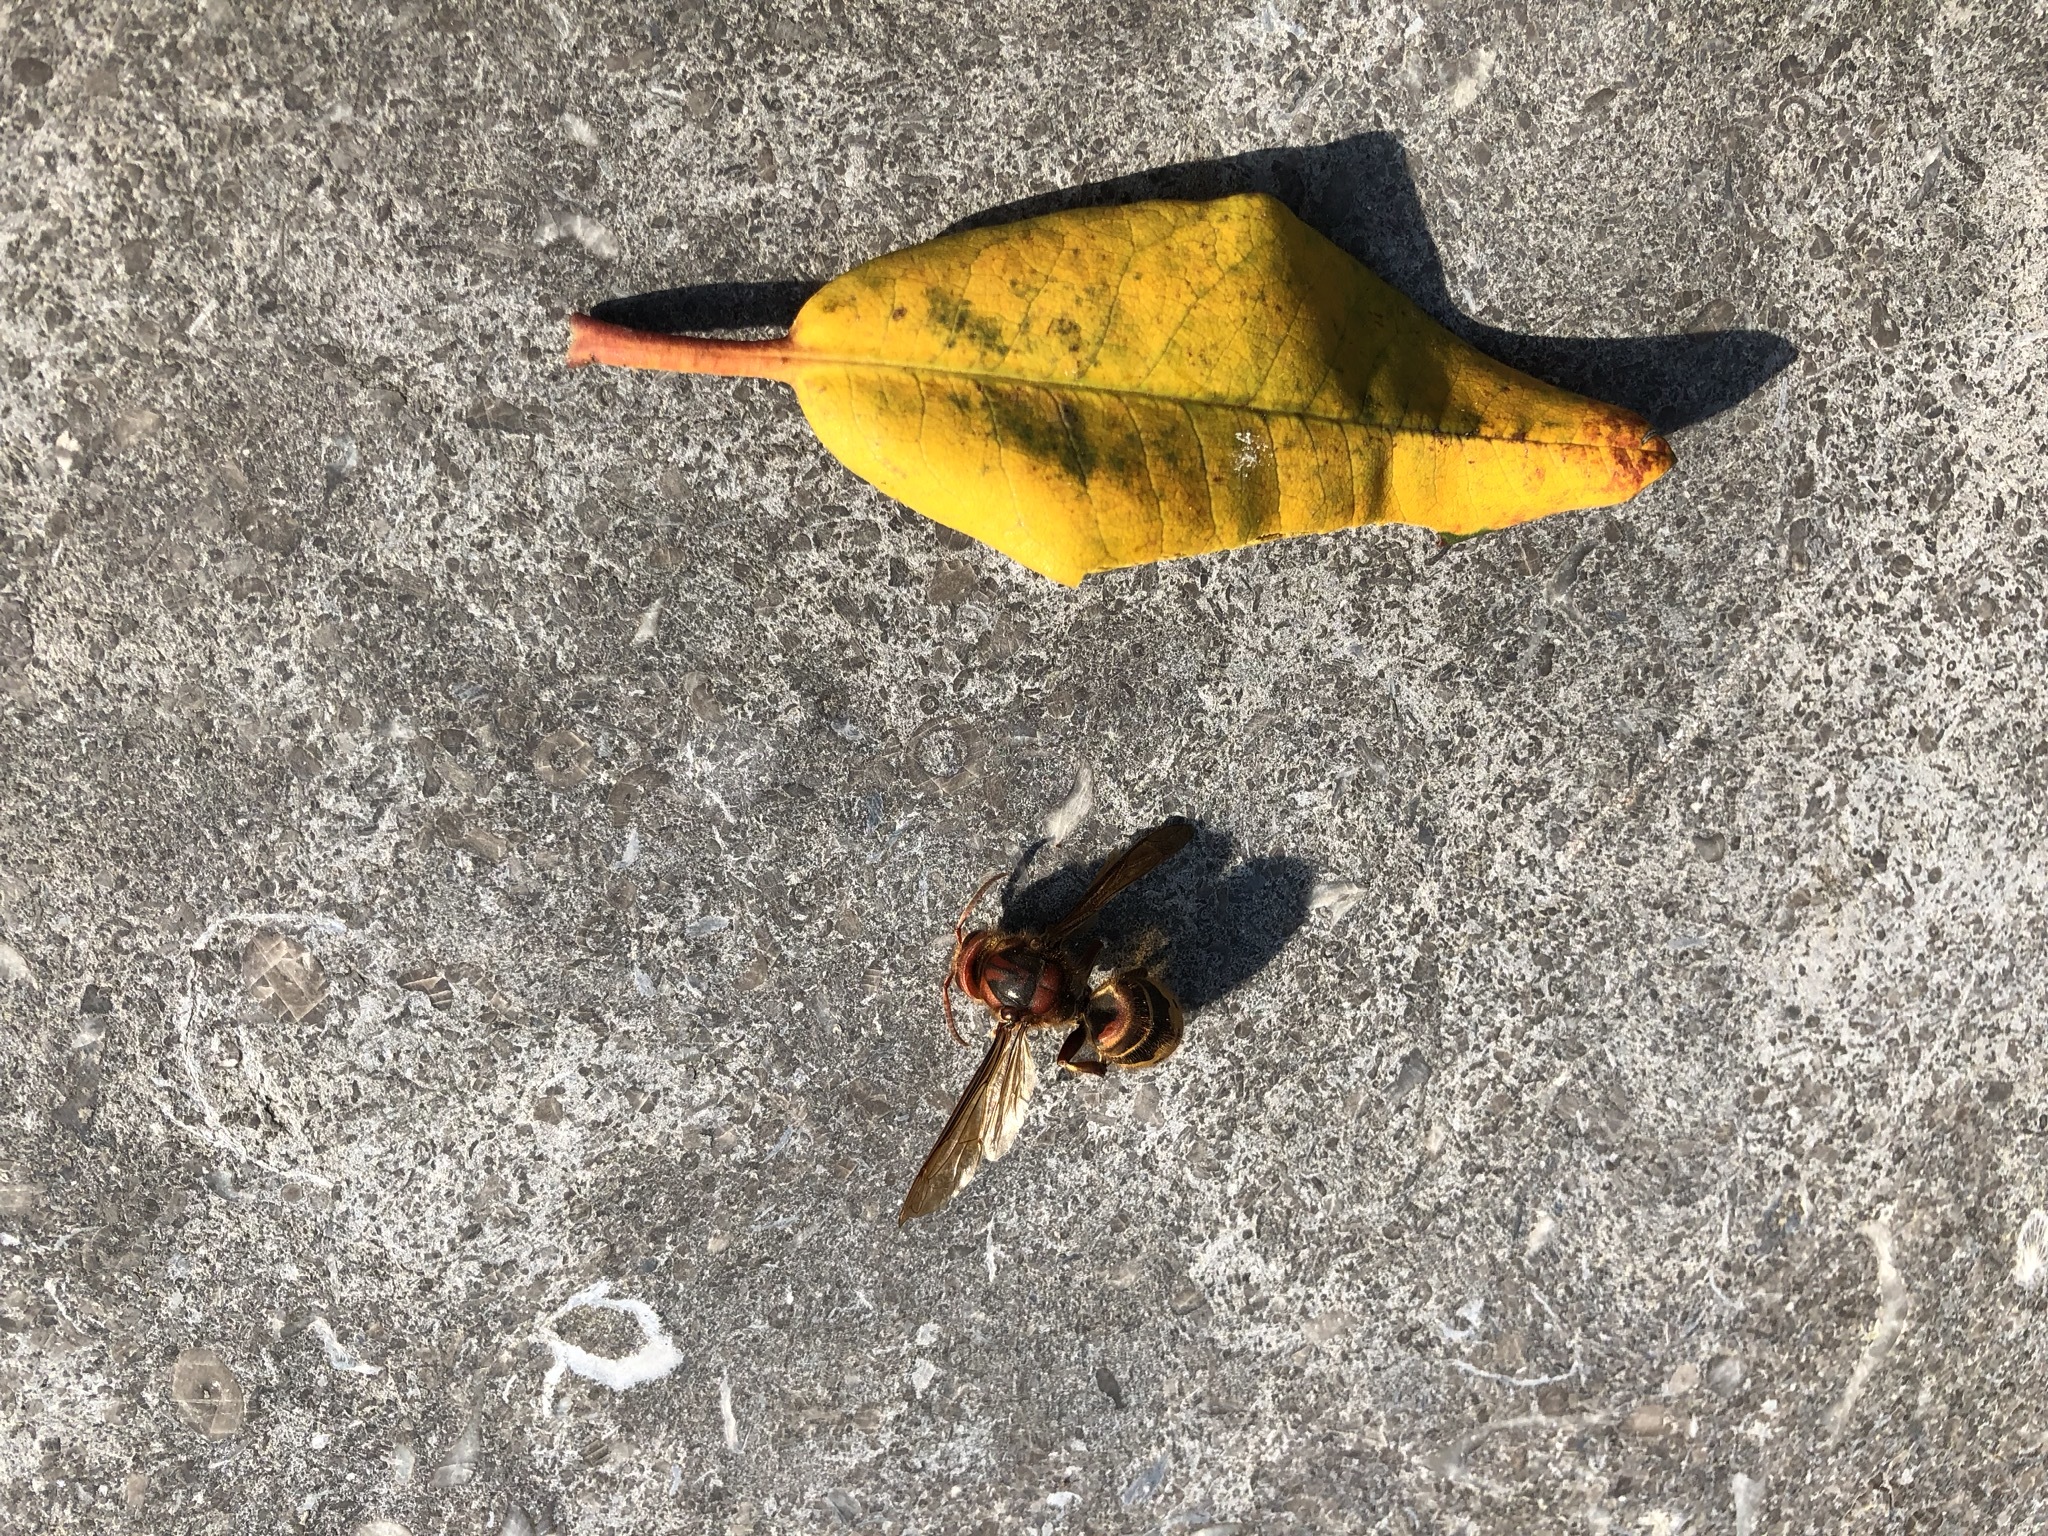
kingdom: Animalia
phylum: Arthropoda
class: Insecta
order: Hymenoptera
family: Vespidae
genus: Vespa
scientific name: Vespa crabro
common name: Hornet
